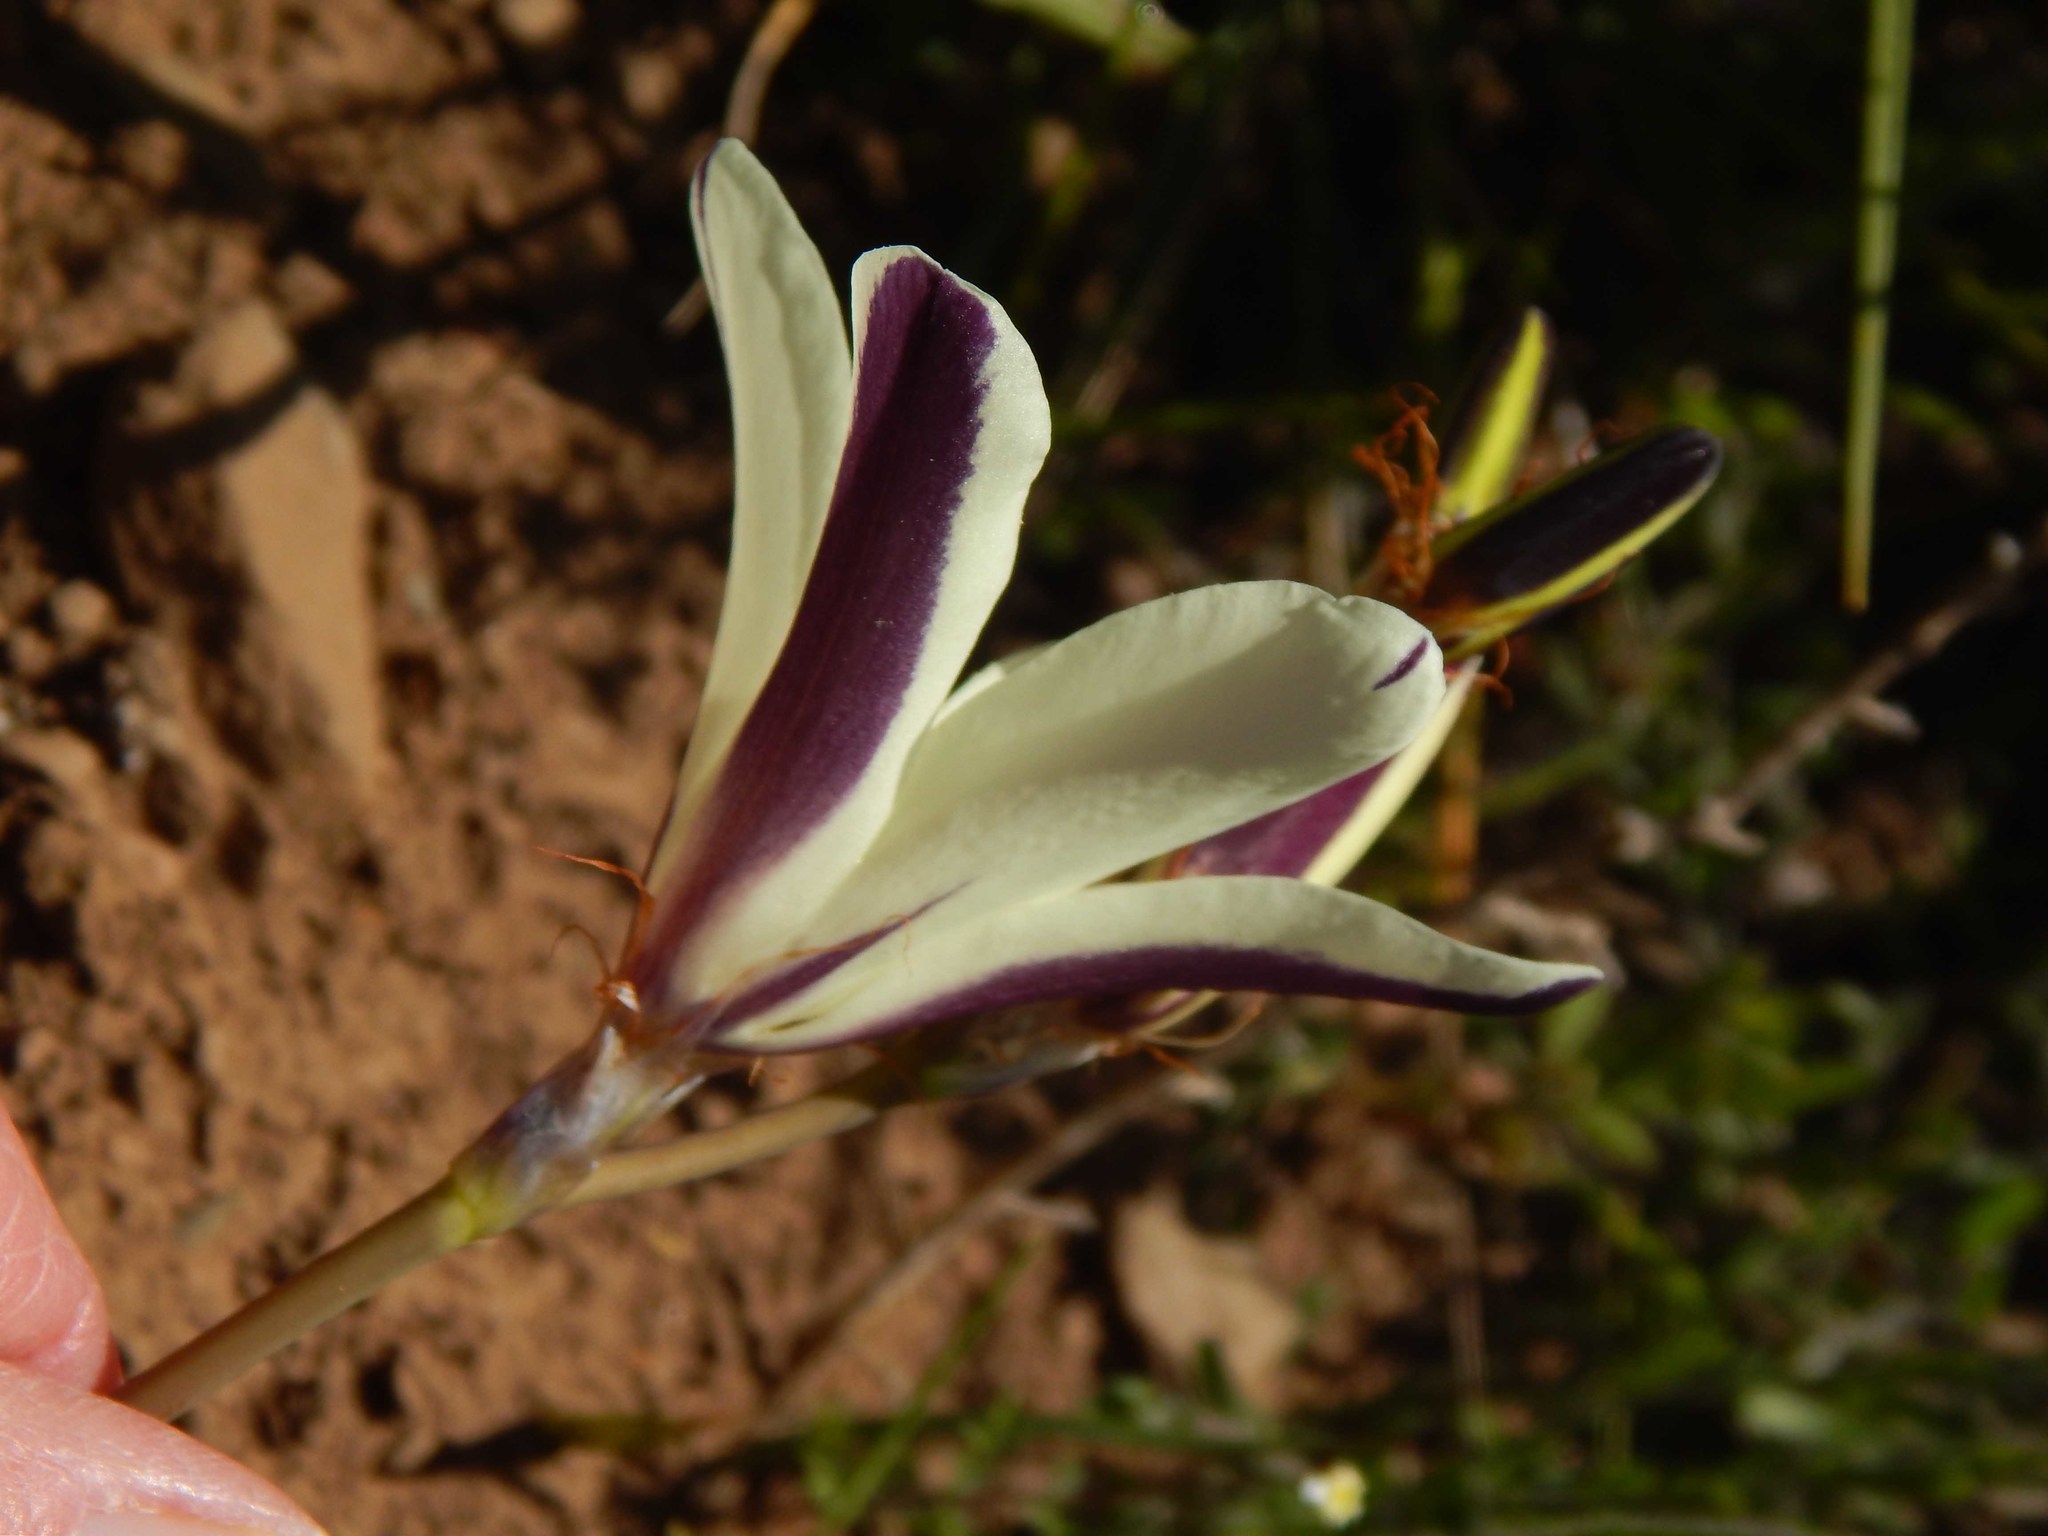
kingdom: Plantae
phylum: Tracheophyta
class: Liliopsida
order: Asparagales
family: Iridaceae
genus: Sparaxis
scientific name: Sparaxis grandiflora
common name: Plain harlequin-flower
